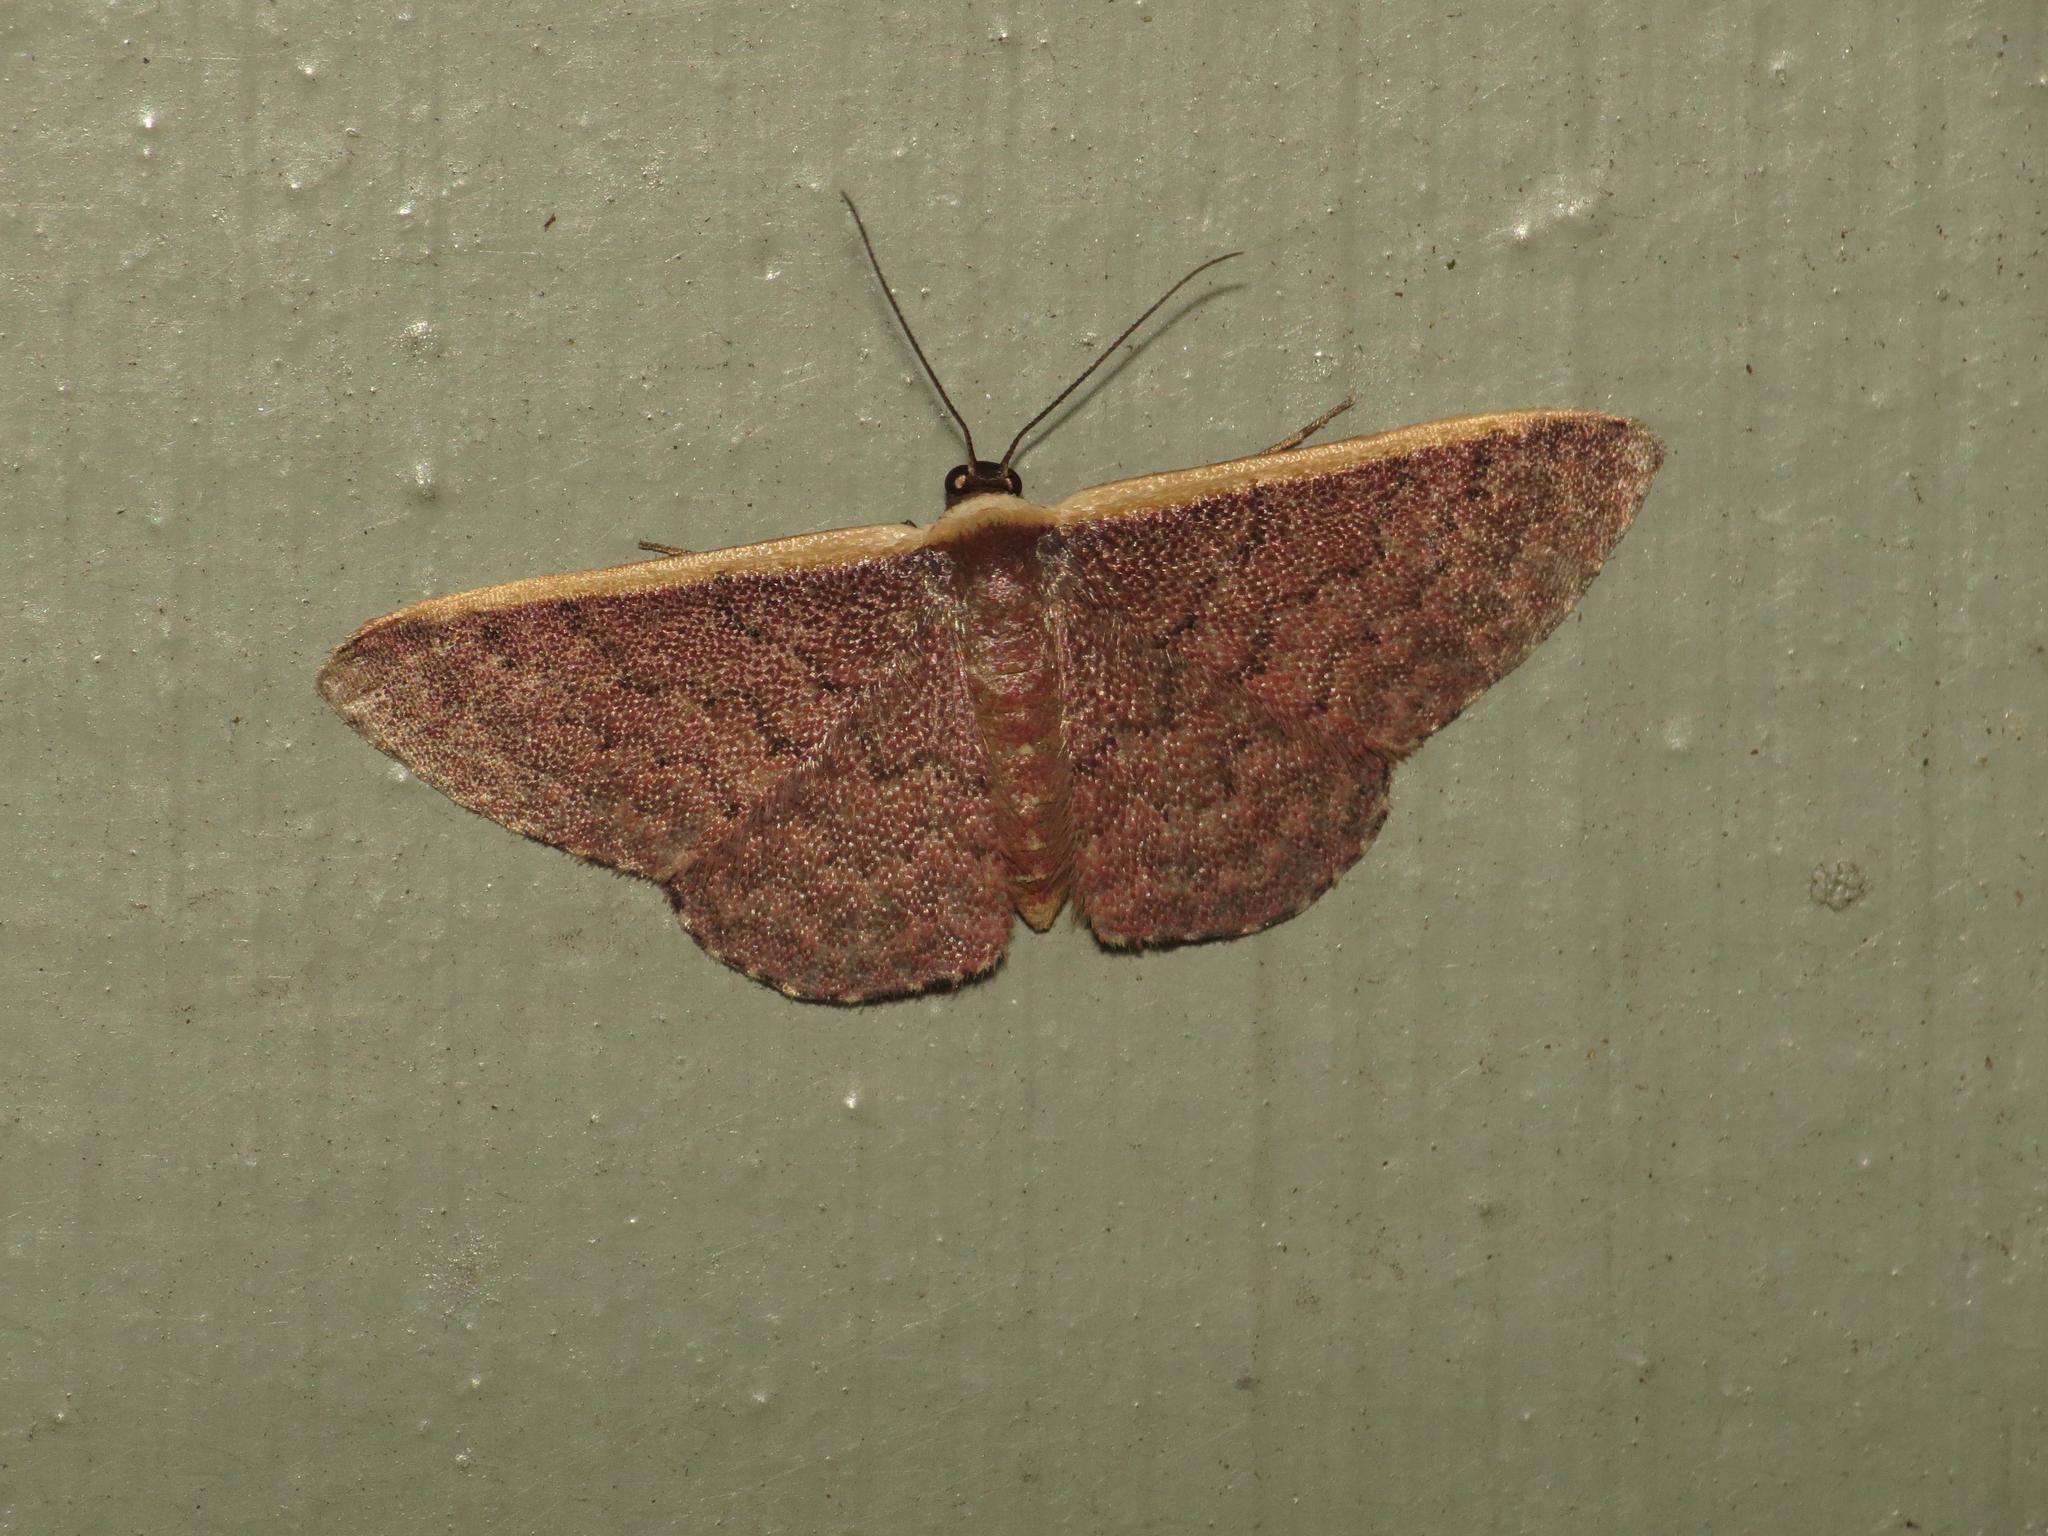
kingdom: Animalia
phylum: Arthropoda
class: Insecta
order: Lepidoptera
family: Geometridae
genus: Idaea
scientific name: Idaea inversata
